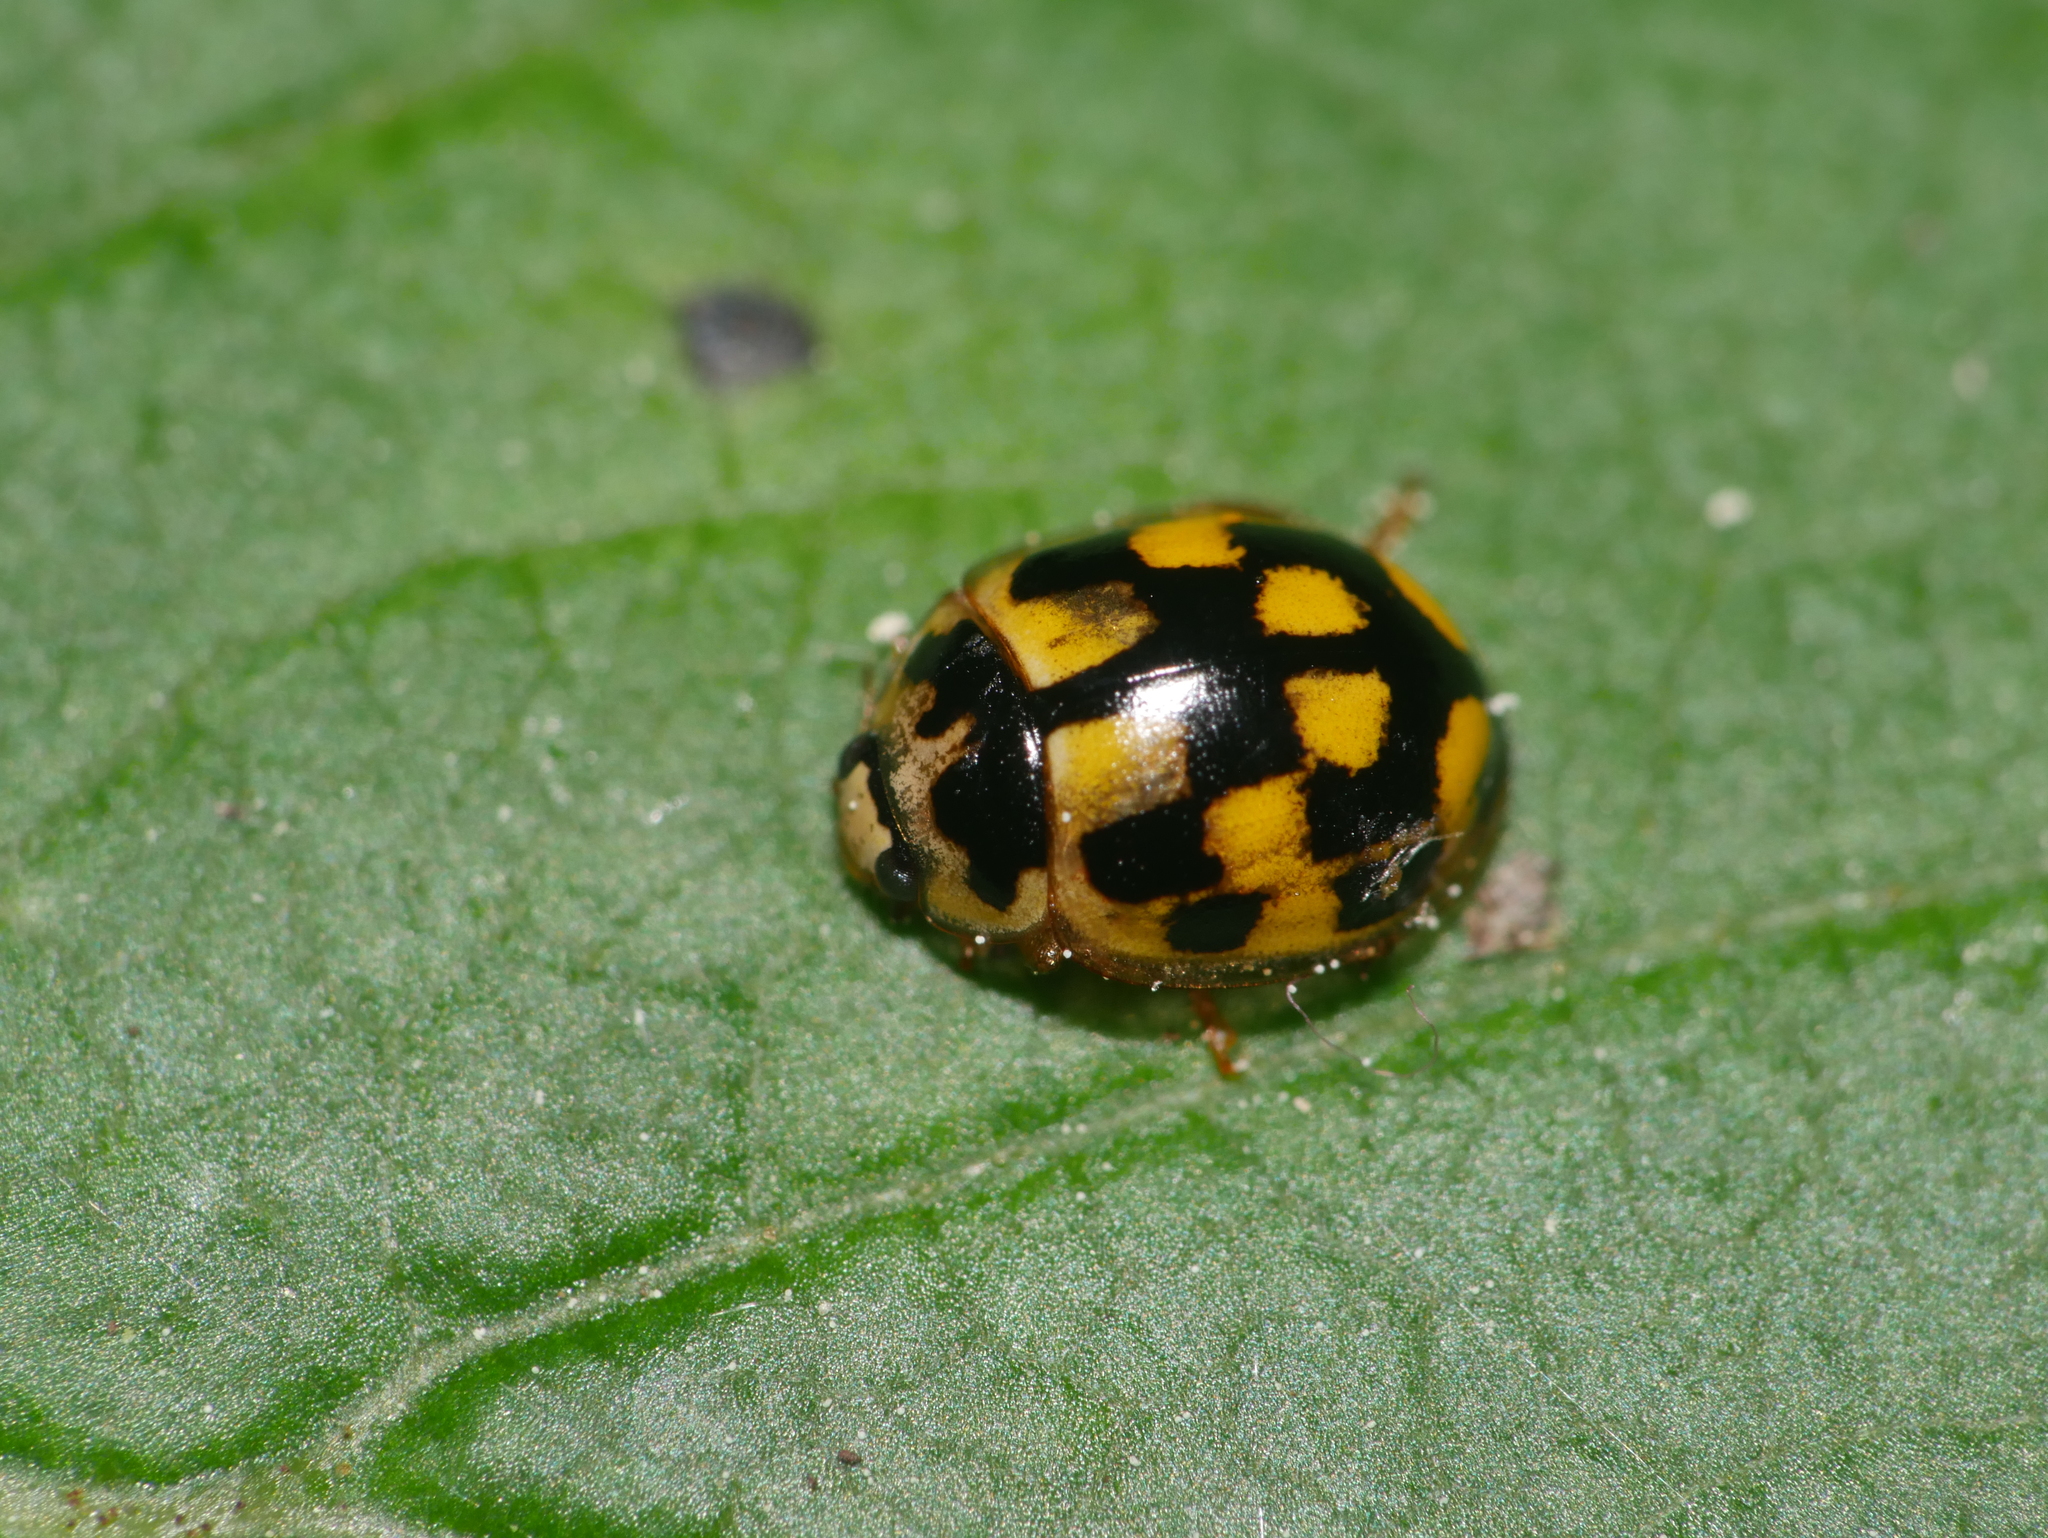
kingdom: Animalia
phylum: Arthropoda
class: Insecta
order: Coleoptera
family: Coccinellidae
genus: Propylaea
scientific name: Propylaea quatuordecimpunctata
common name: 14-spotted ladybird beetle
